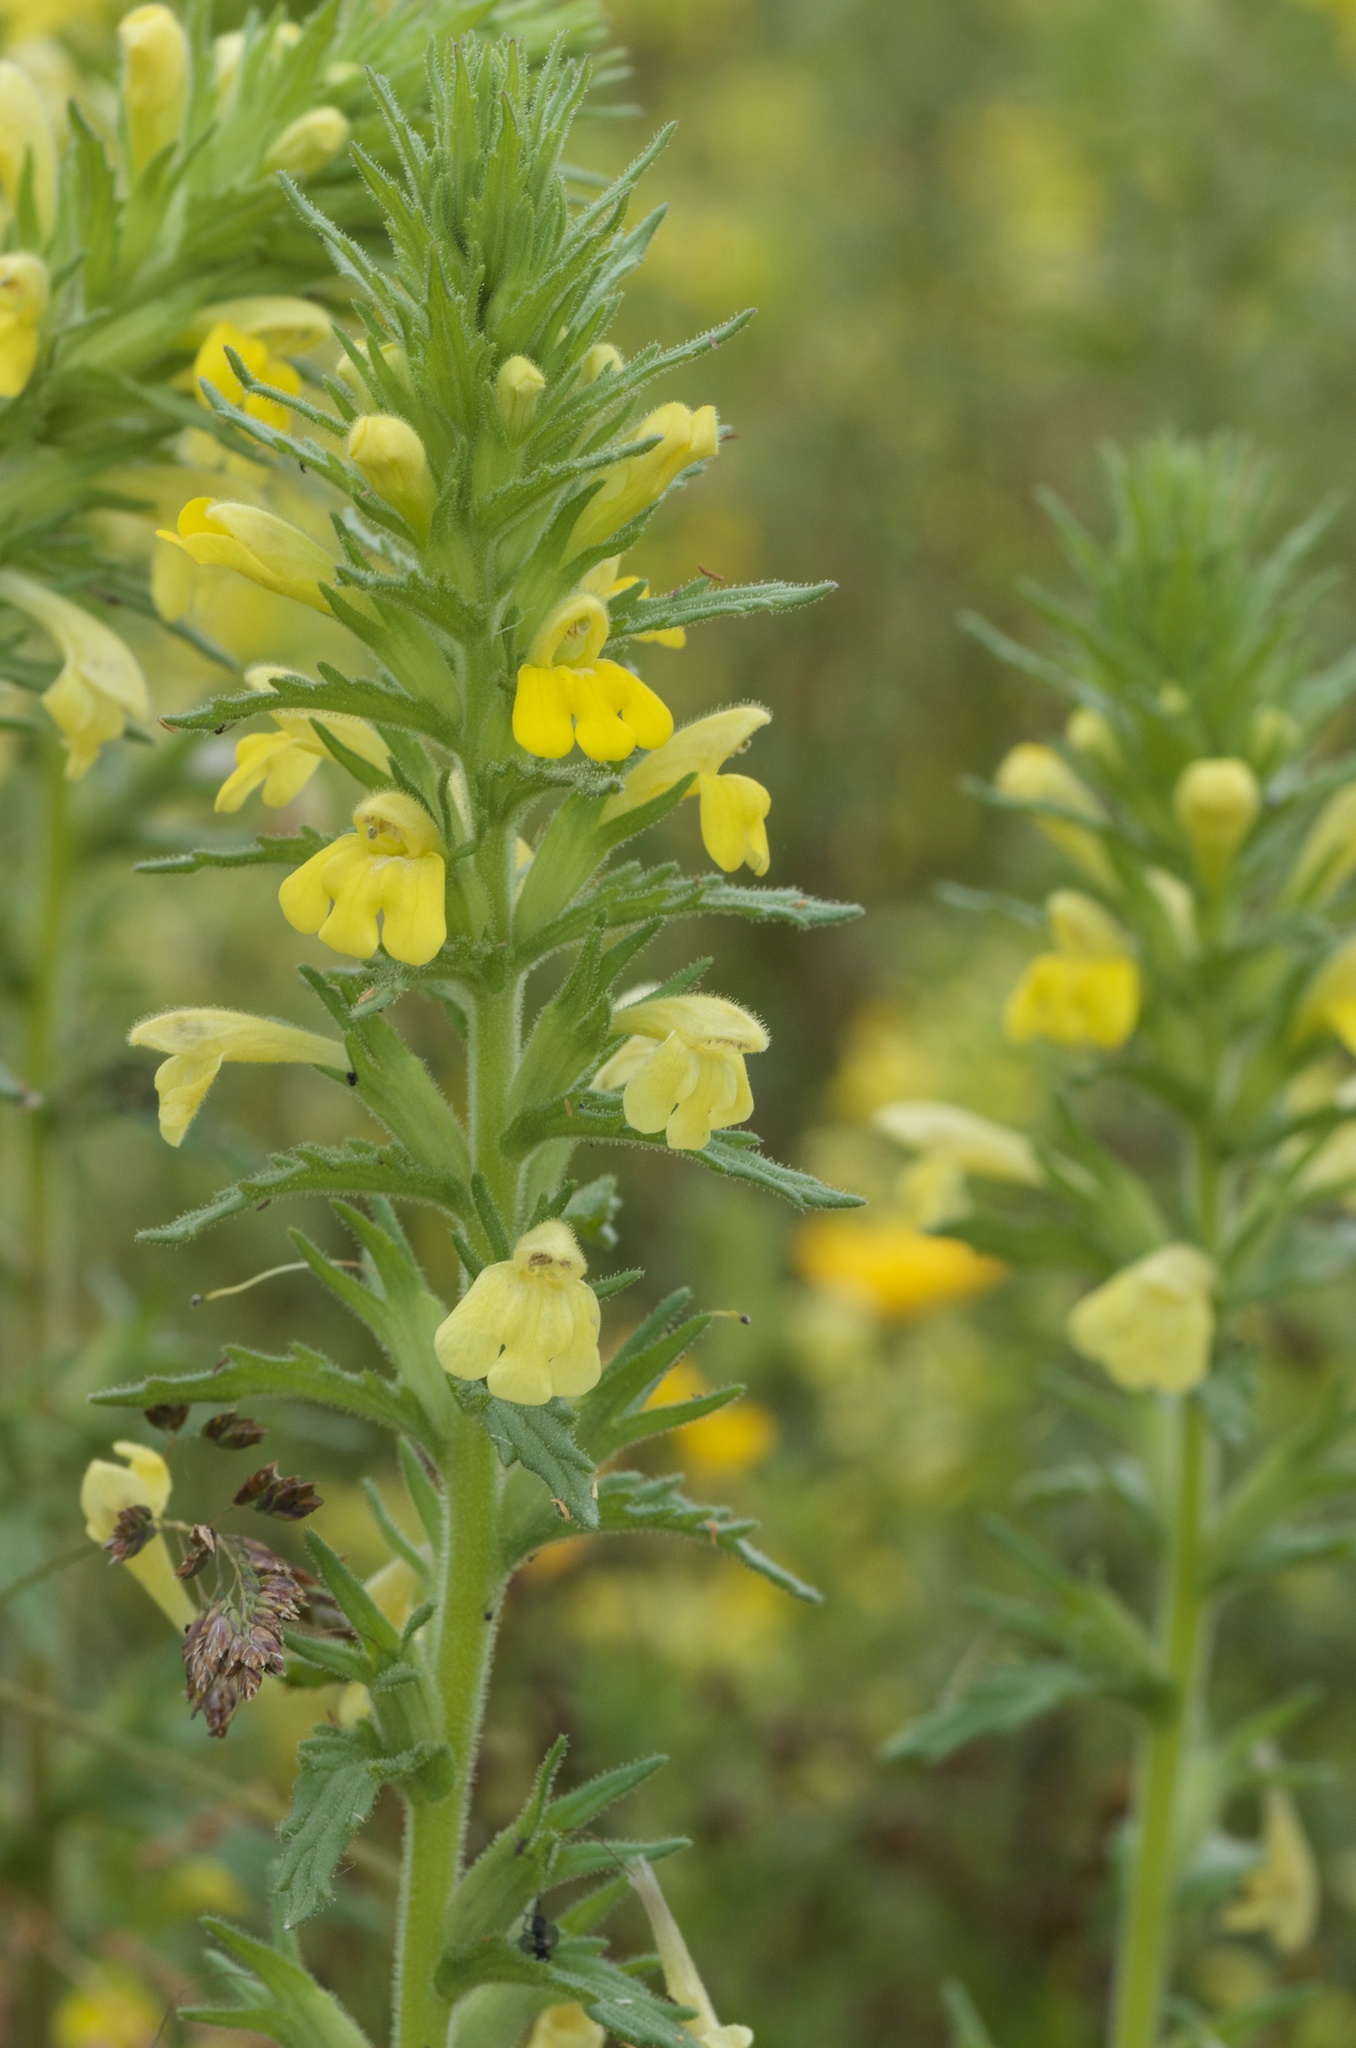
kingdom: Plantae
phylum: Tracheophyta
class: Magnoliopsida
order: Lamiales
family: Orobanchaceae
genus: Bellardia
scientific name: Bellardia viscosa
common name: Sticky parentucellia
